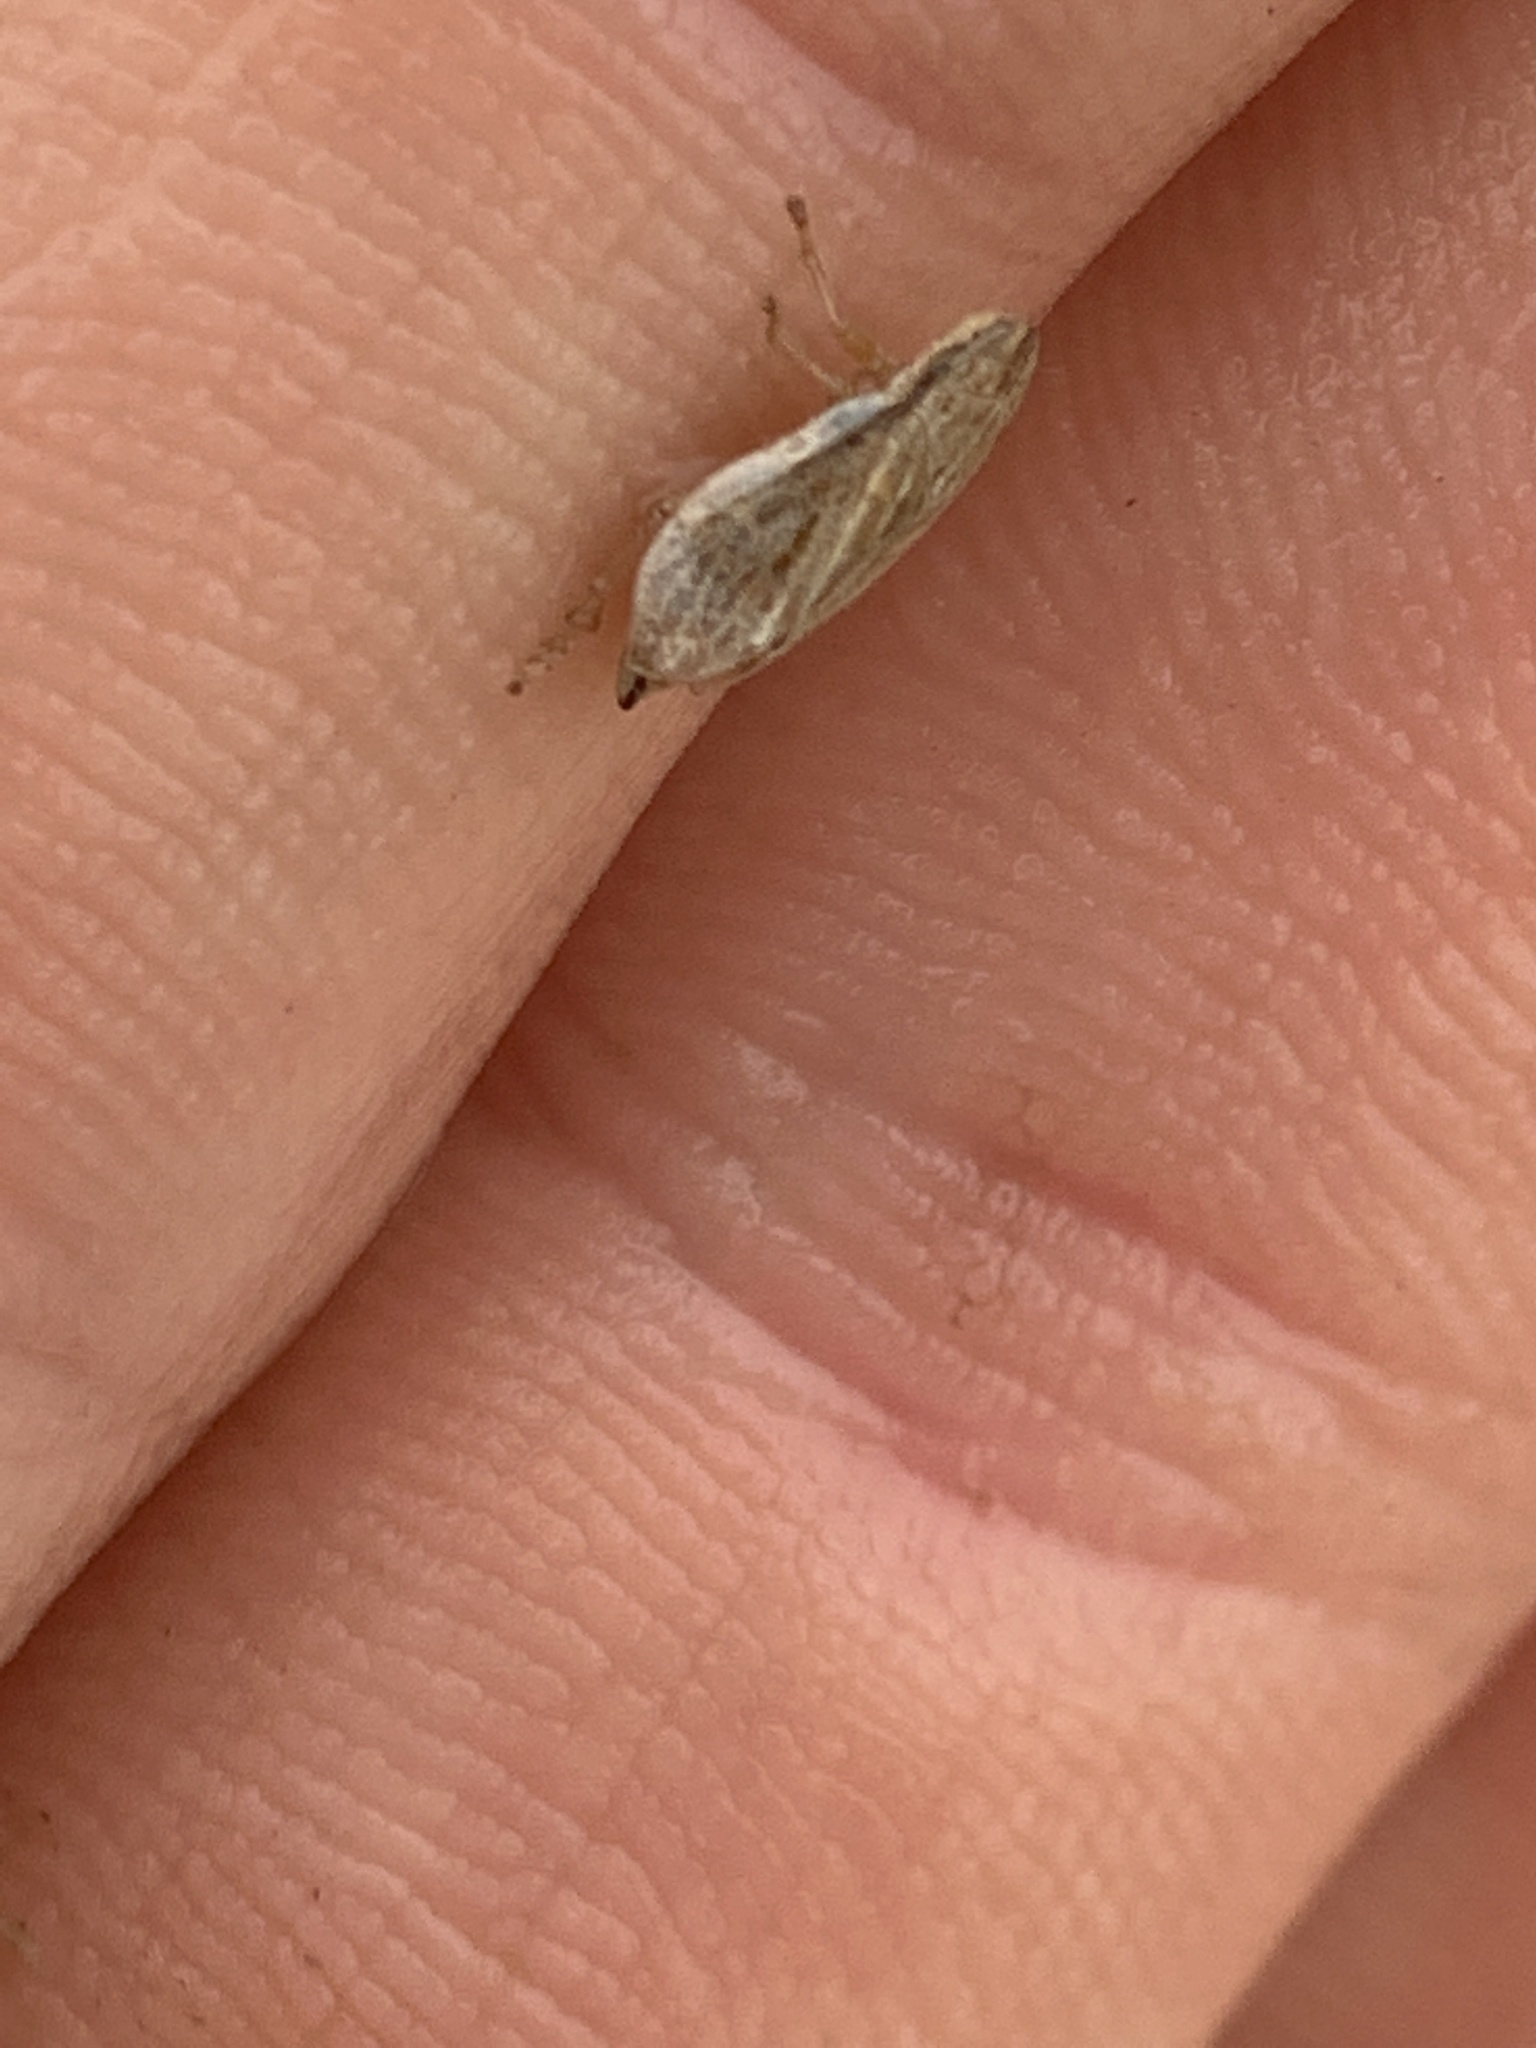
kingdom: Animalia
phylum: Arthropoda
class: Insecta
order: Hemiptera
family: Aphrophoridae
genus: Philaenarcys
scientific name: Philaenarcys bilineata
